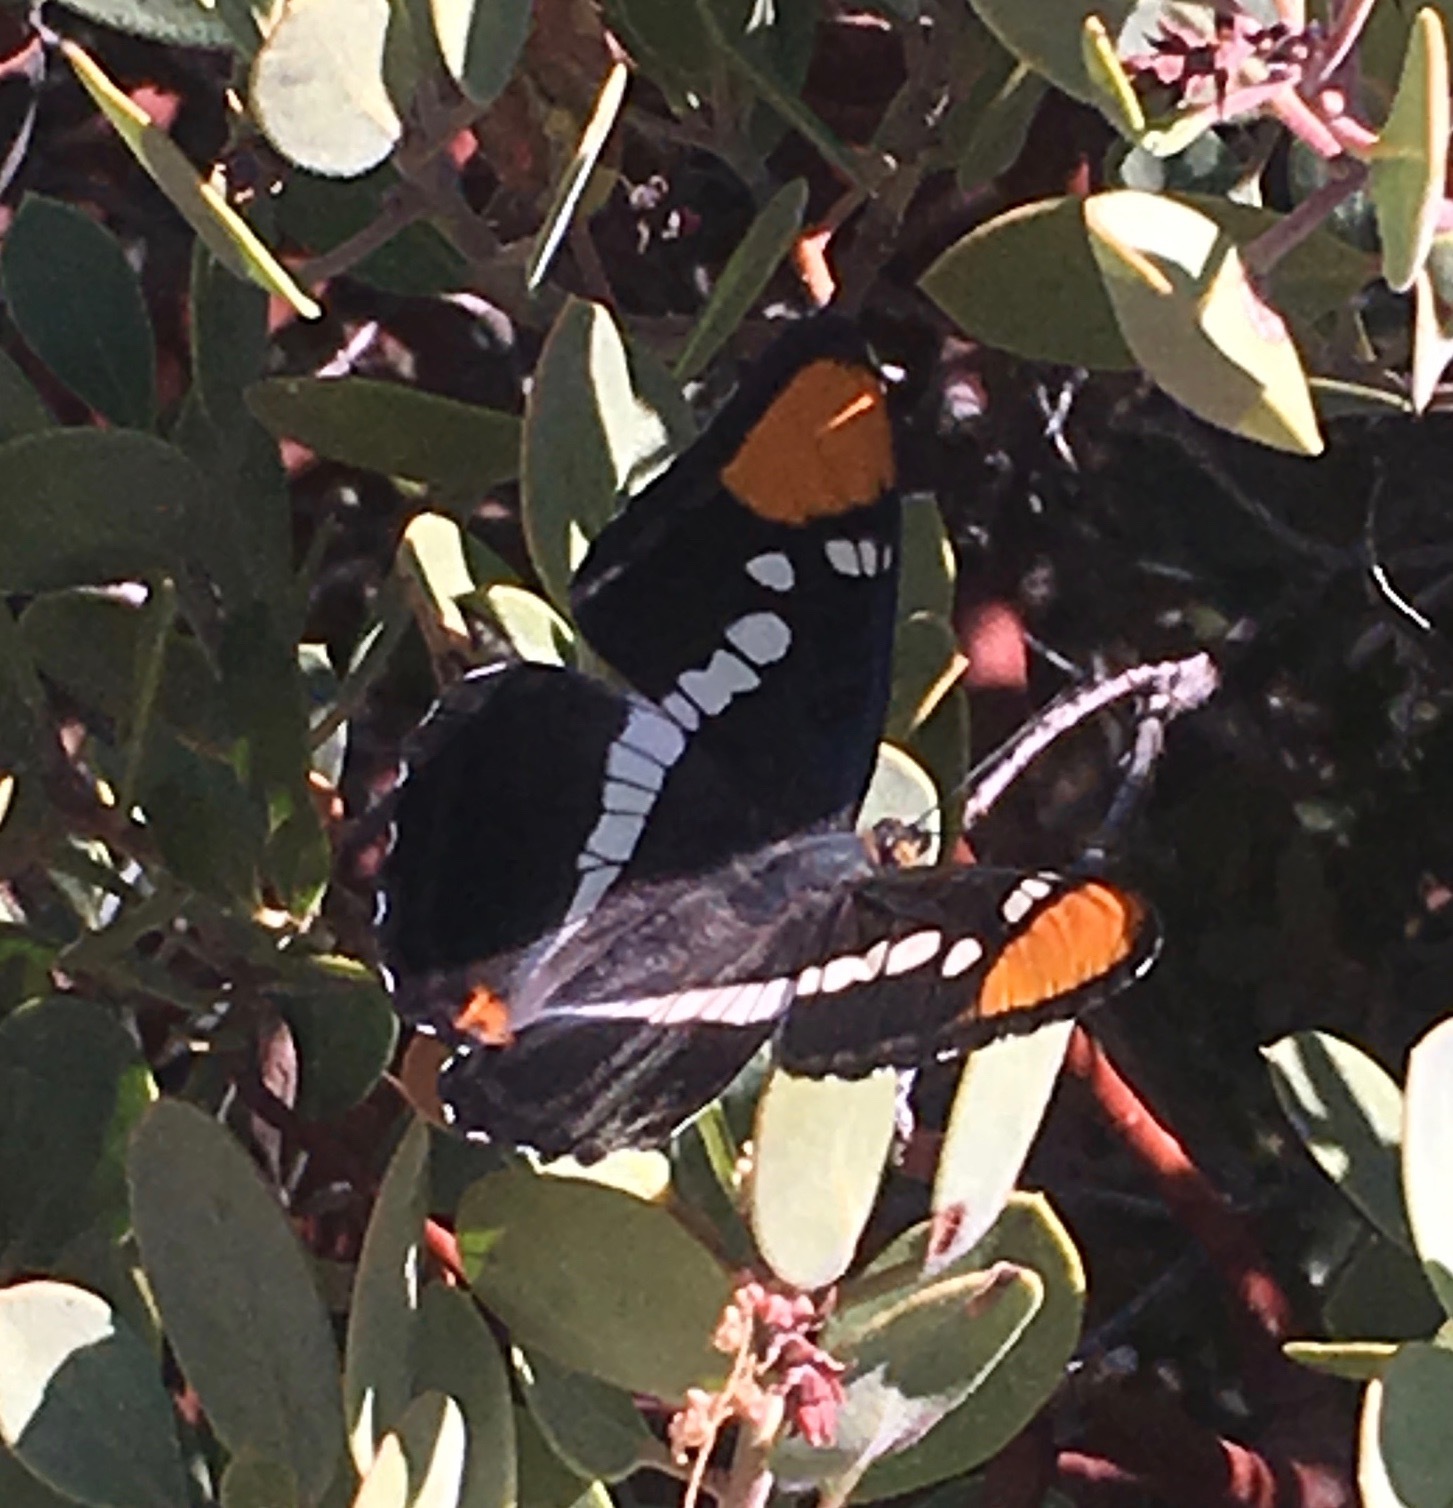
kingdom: Animalia
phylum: Arthropoda
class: Insecta
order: Lepidoptera
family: Nymphalidae
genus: Limenitis
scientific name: Limenitis bredowii
